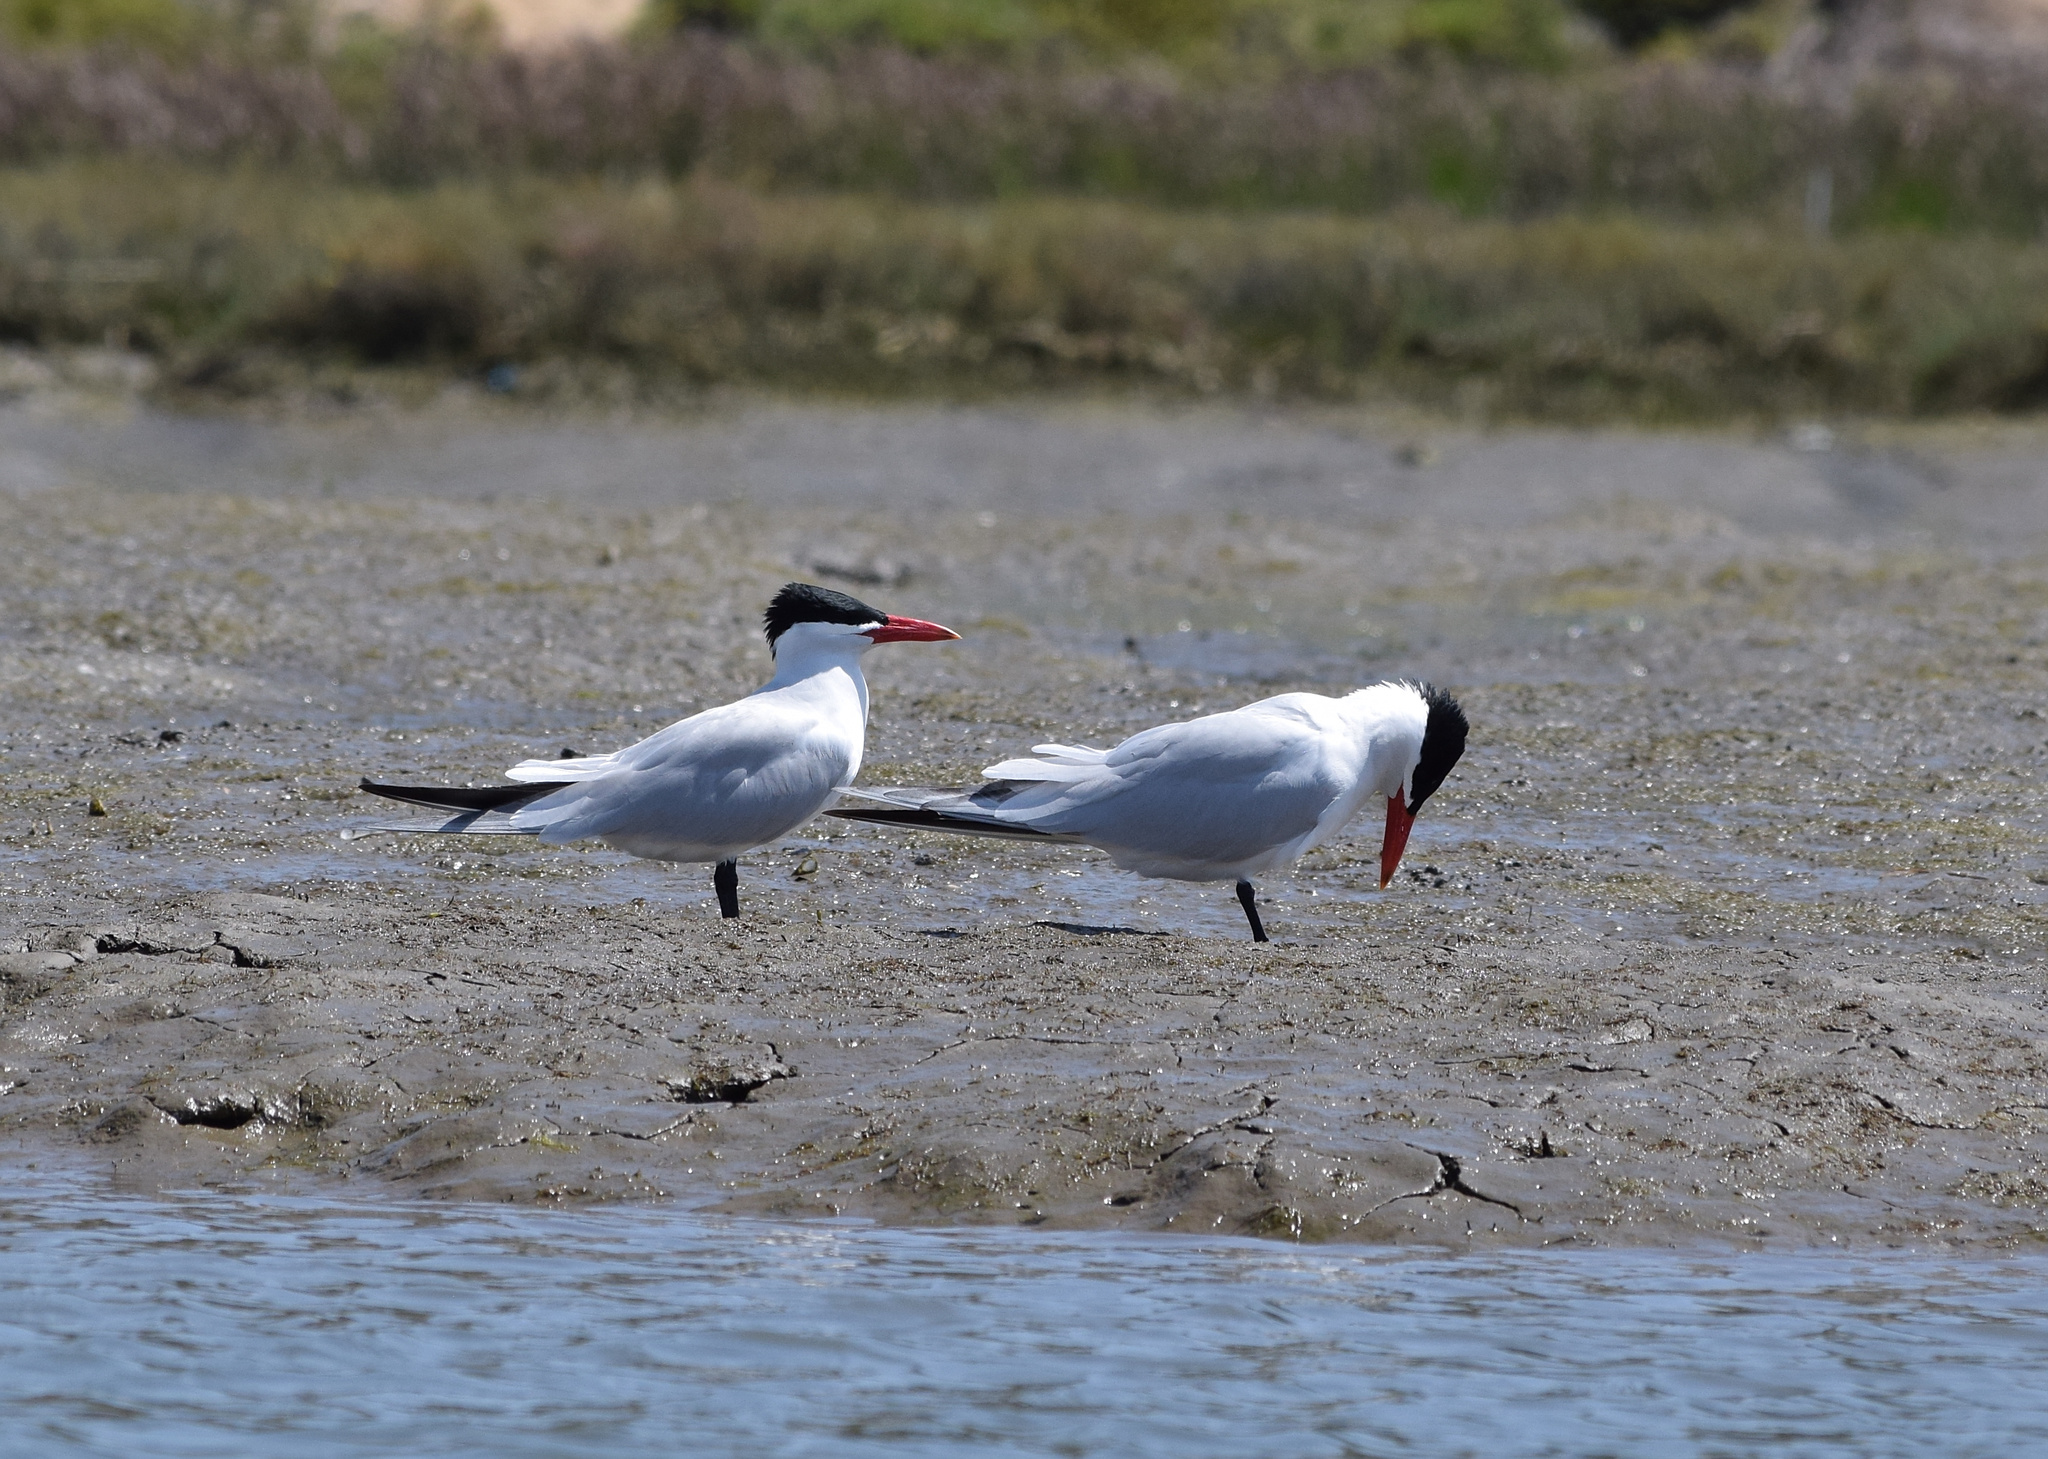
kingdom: Animalia
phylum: Chordata
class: Aves
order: Charadriiformes
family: Laridae
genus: Hydroprogne
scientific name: Hydroprogne caspia
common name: Caspian tern
